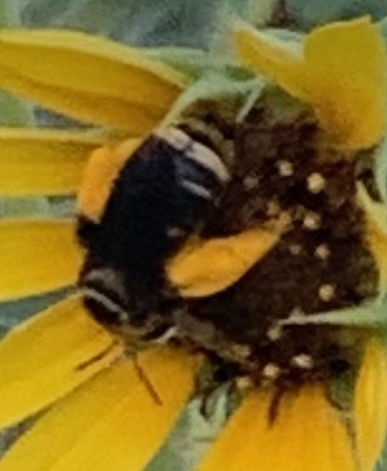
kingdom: Animalia
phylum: Arthropoda
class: Insecta
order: Hymenoptera
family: Apidae
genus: Svastra
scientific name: Svastra obliqua
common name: Oblique longhorn
